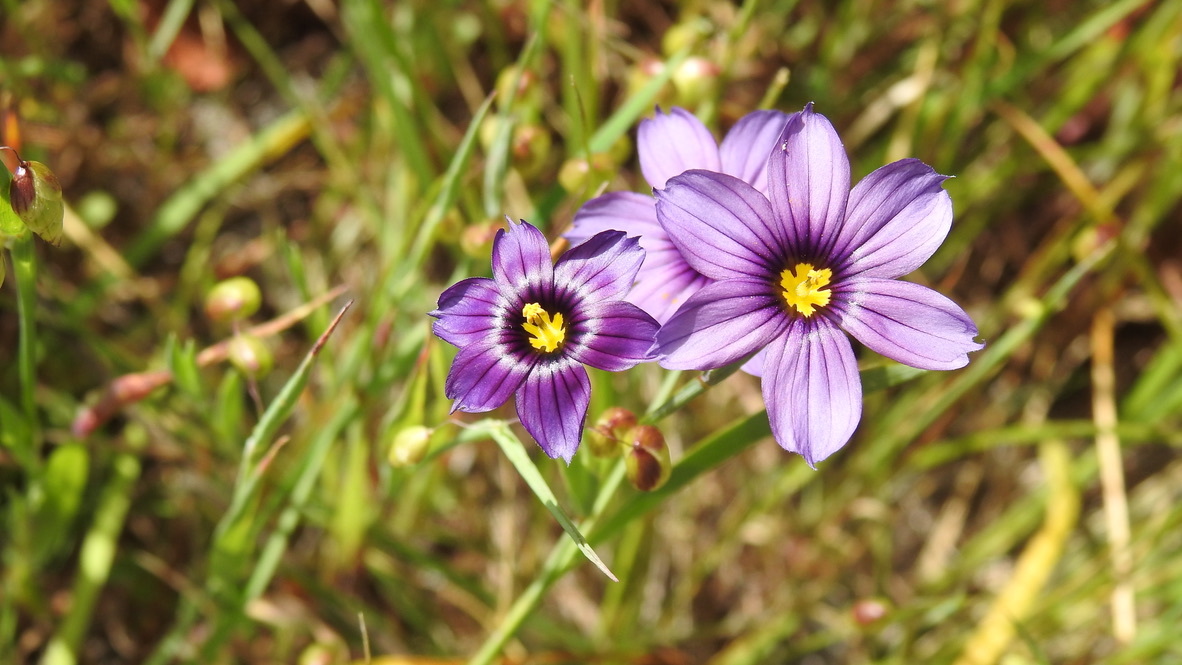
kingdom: Plantae
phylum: Tracheophyta
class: Liliopsida
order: Asparagales
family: Iridaceae
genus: Sisyrinchium
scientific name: Sisyrinchium bellum
